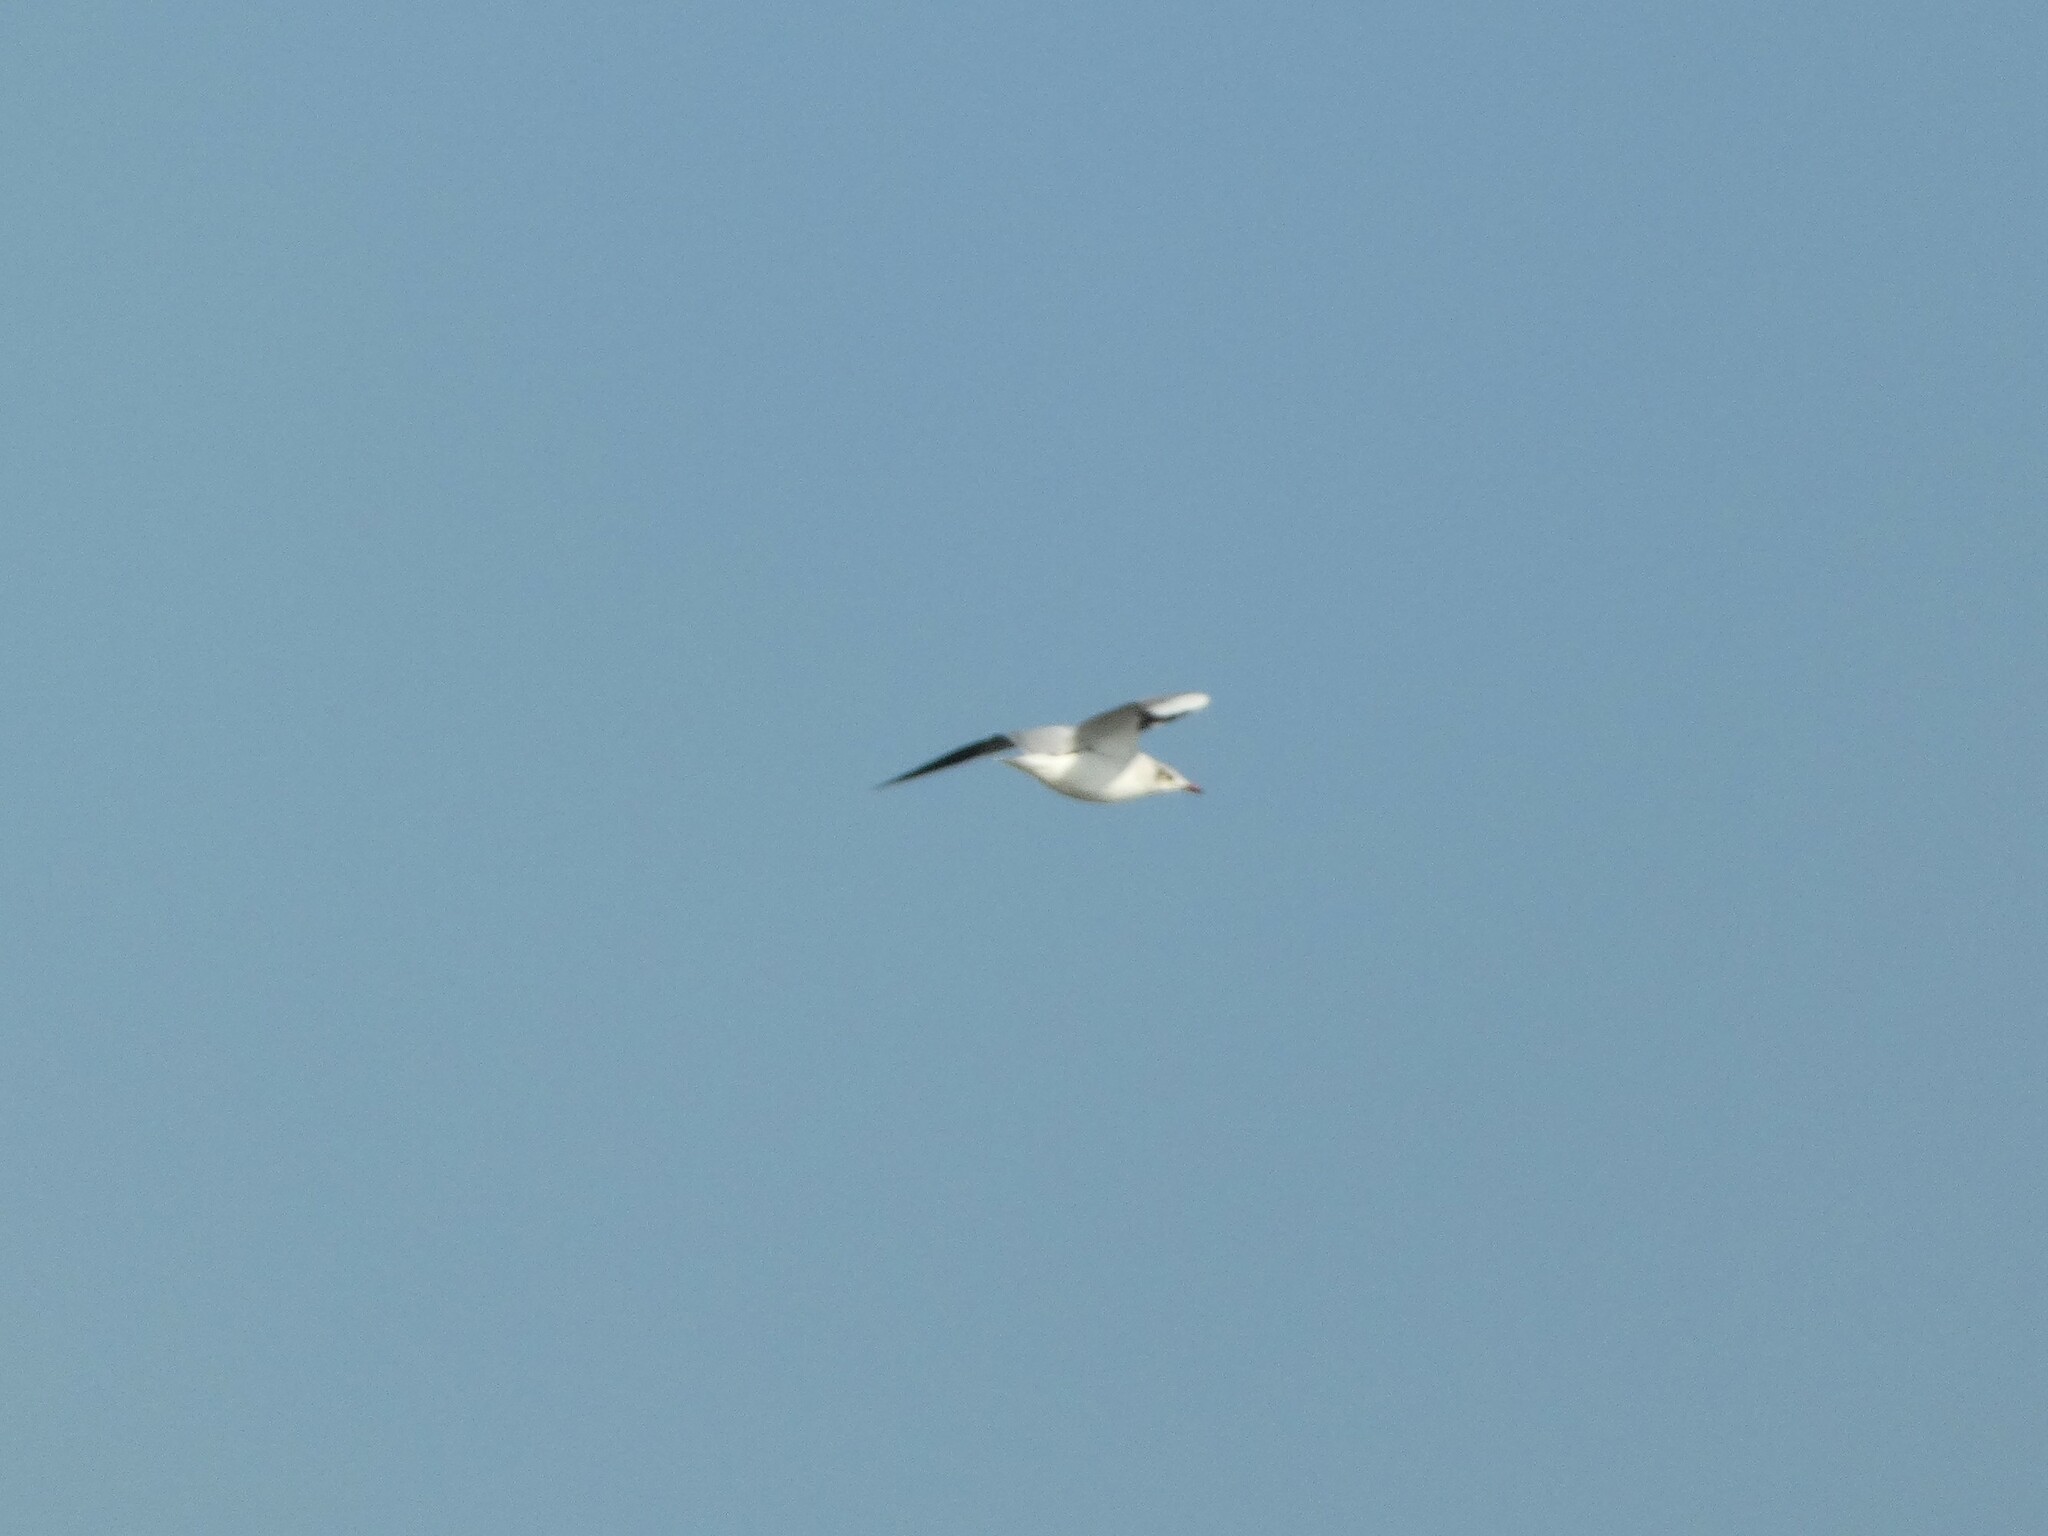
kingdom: Animalia
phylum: Chordata
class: Aves
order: Charadriiformes
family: Laridae
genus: Chroicocephalus
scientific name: Chroicocephalus brunnicephalus
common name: Brown-headed gull
